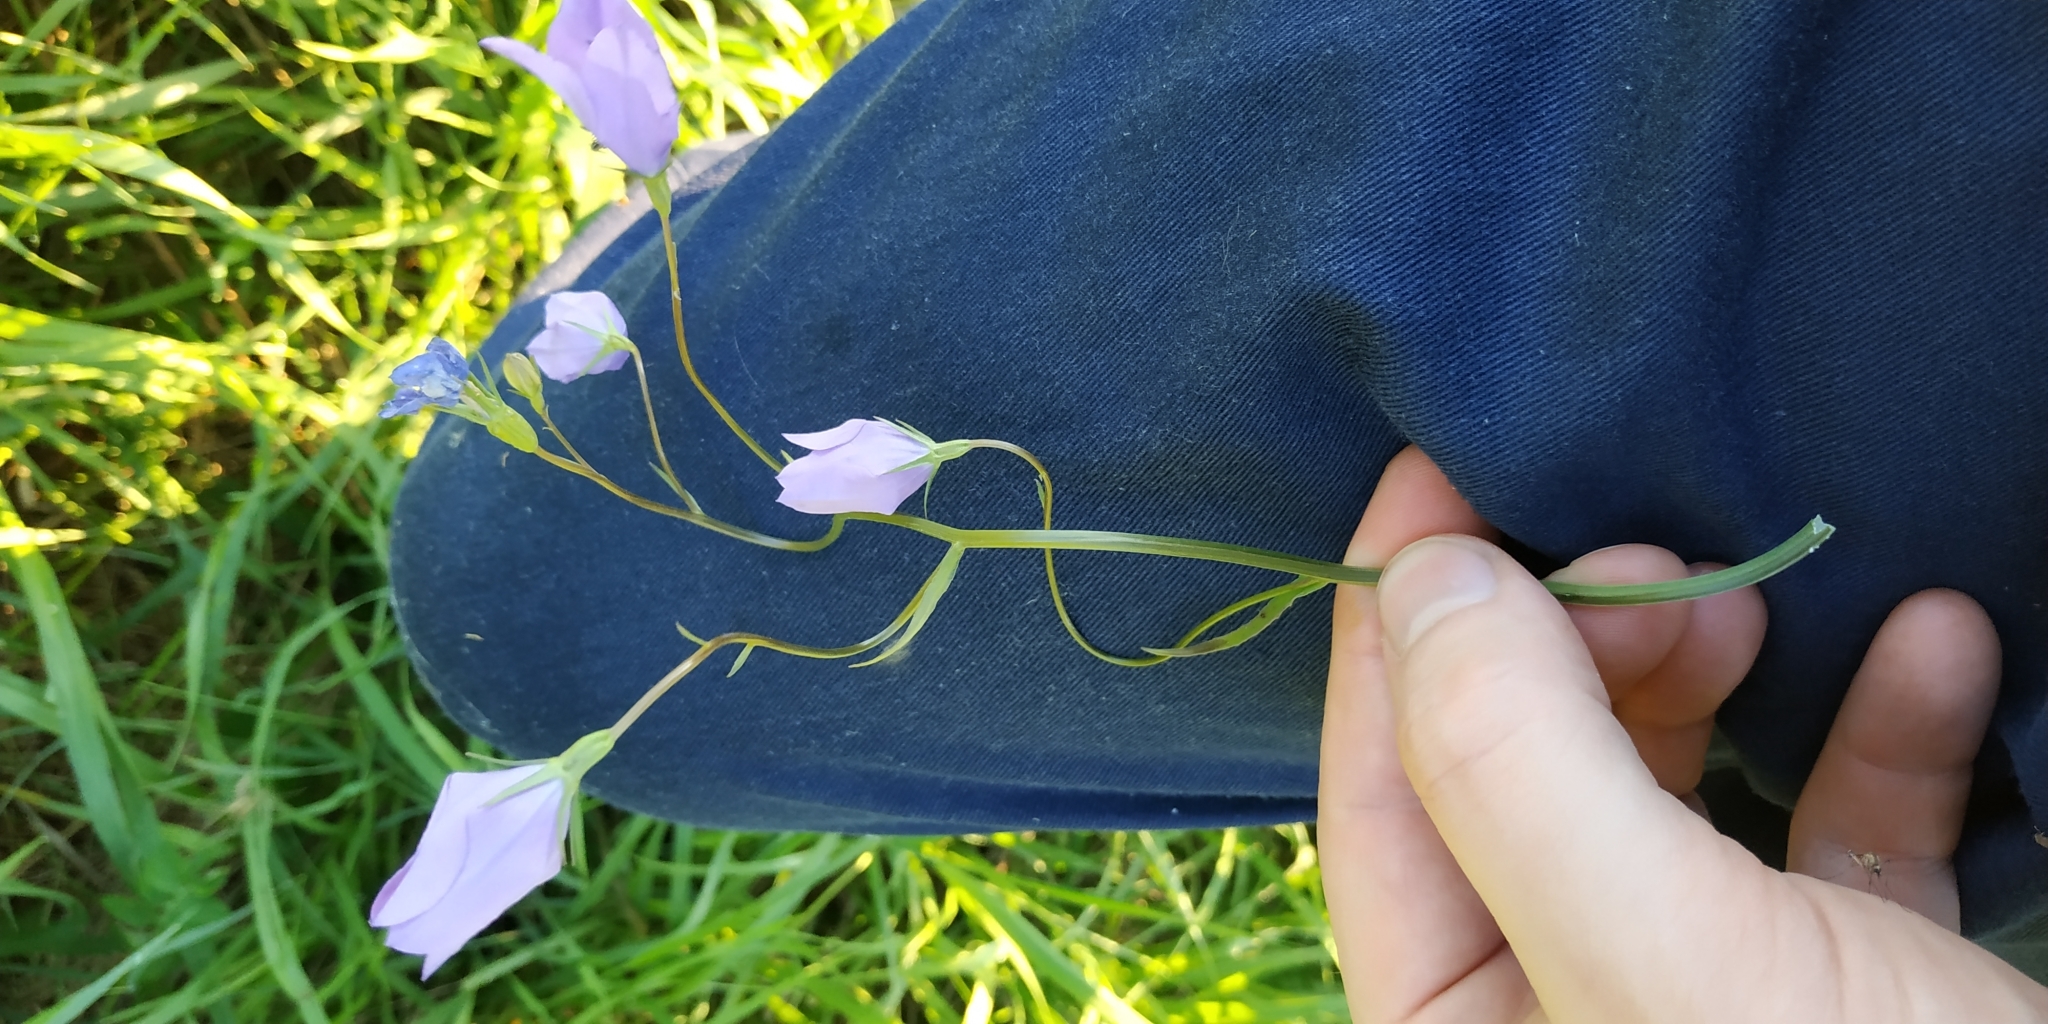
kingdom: Plantae
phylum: Tracheophyta
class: Magnoliopsida
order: Asterales
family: Campanulaceae
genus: Campanula
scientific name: Campanula stevenii
